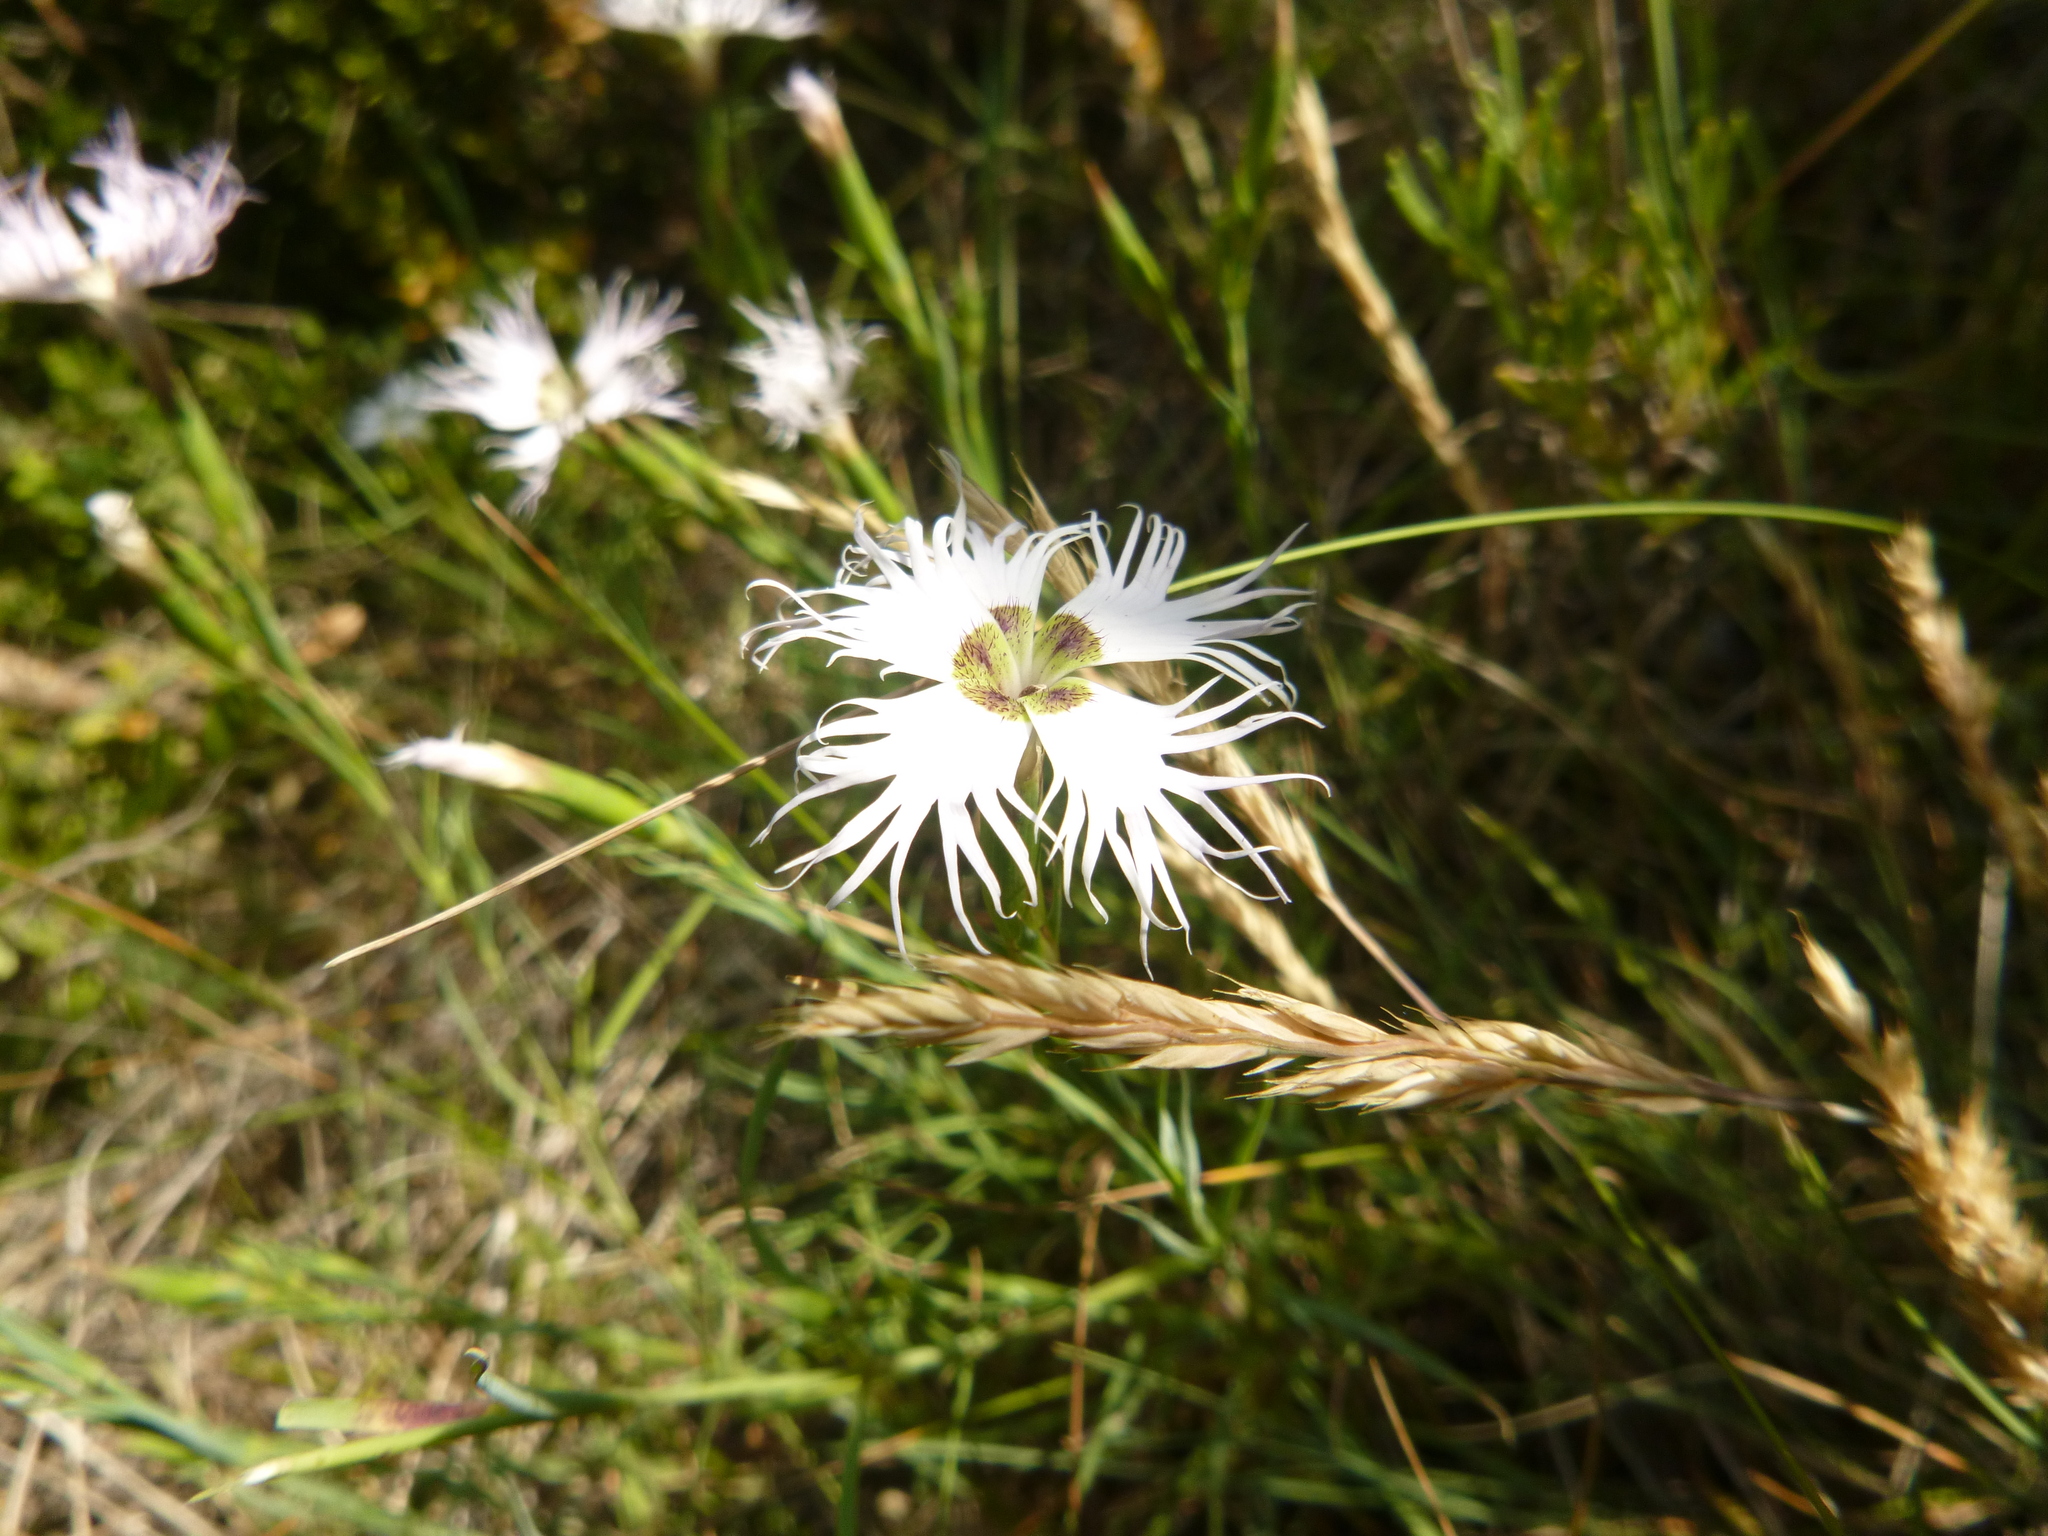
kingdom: Plantae
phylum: Tracheophyta
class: Magnoliopsida
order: Caryophyllales
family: Caryophyllaceae
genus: Dianthus
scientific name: Dianthus hyssopifolius
